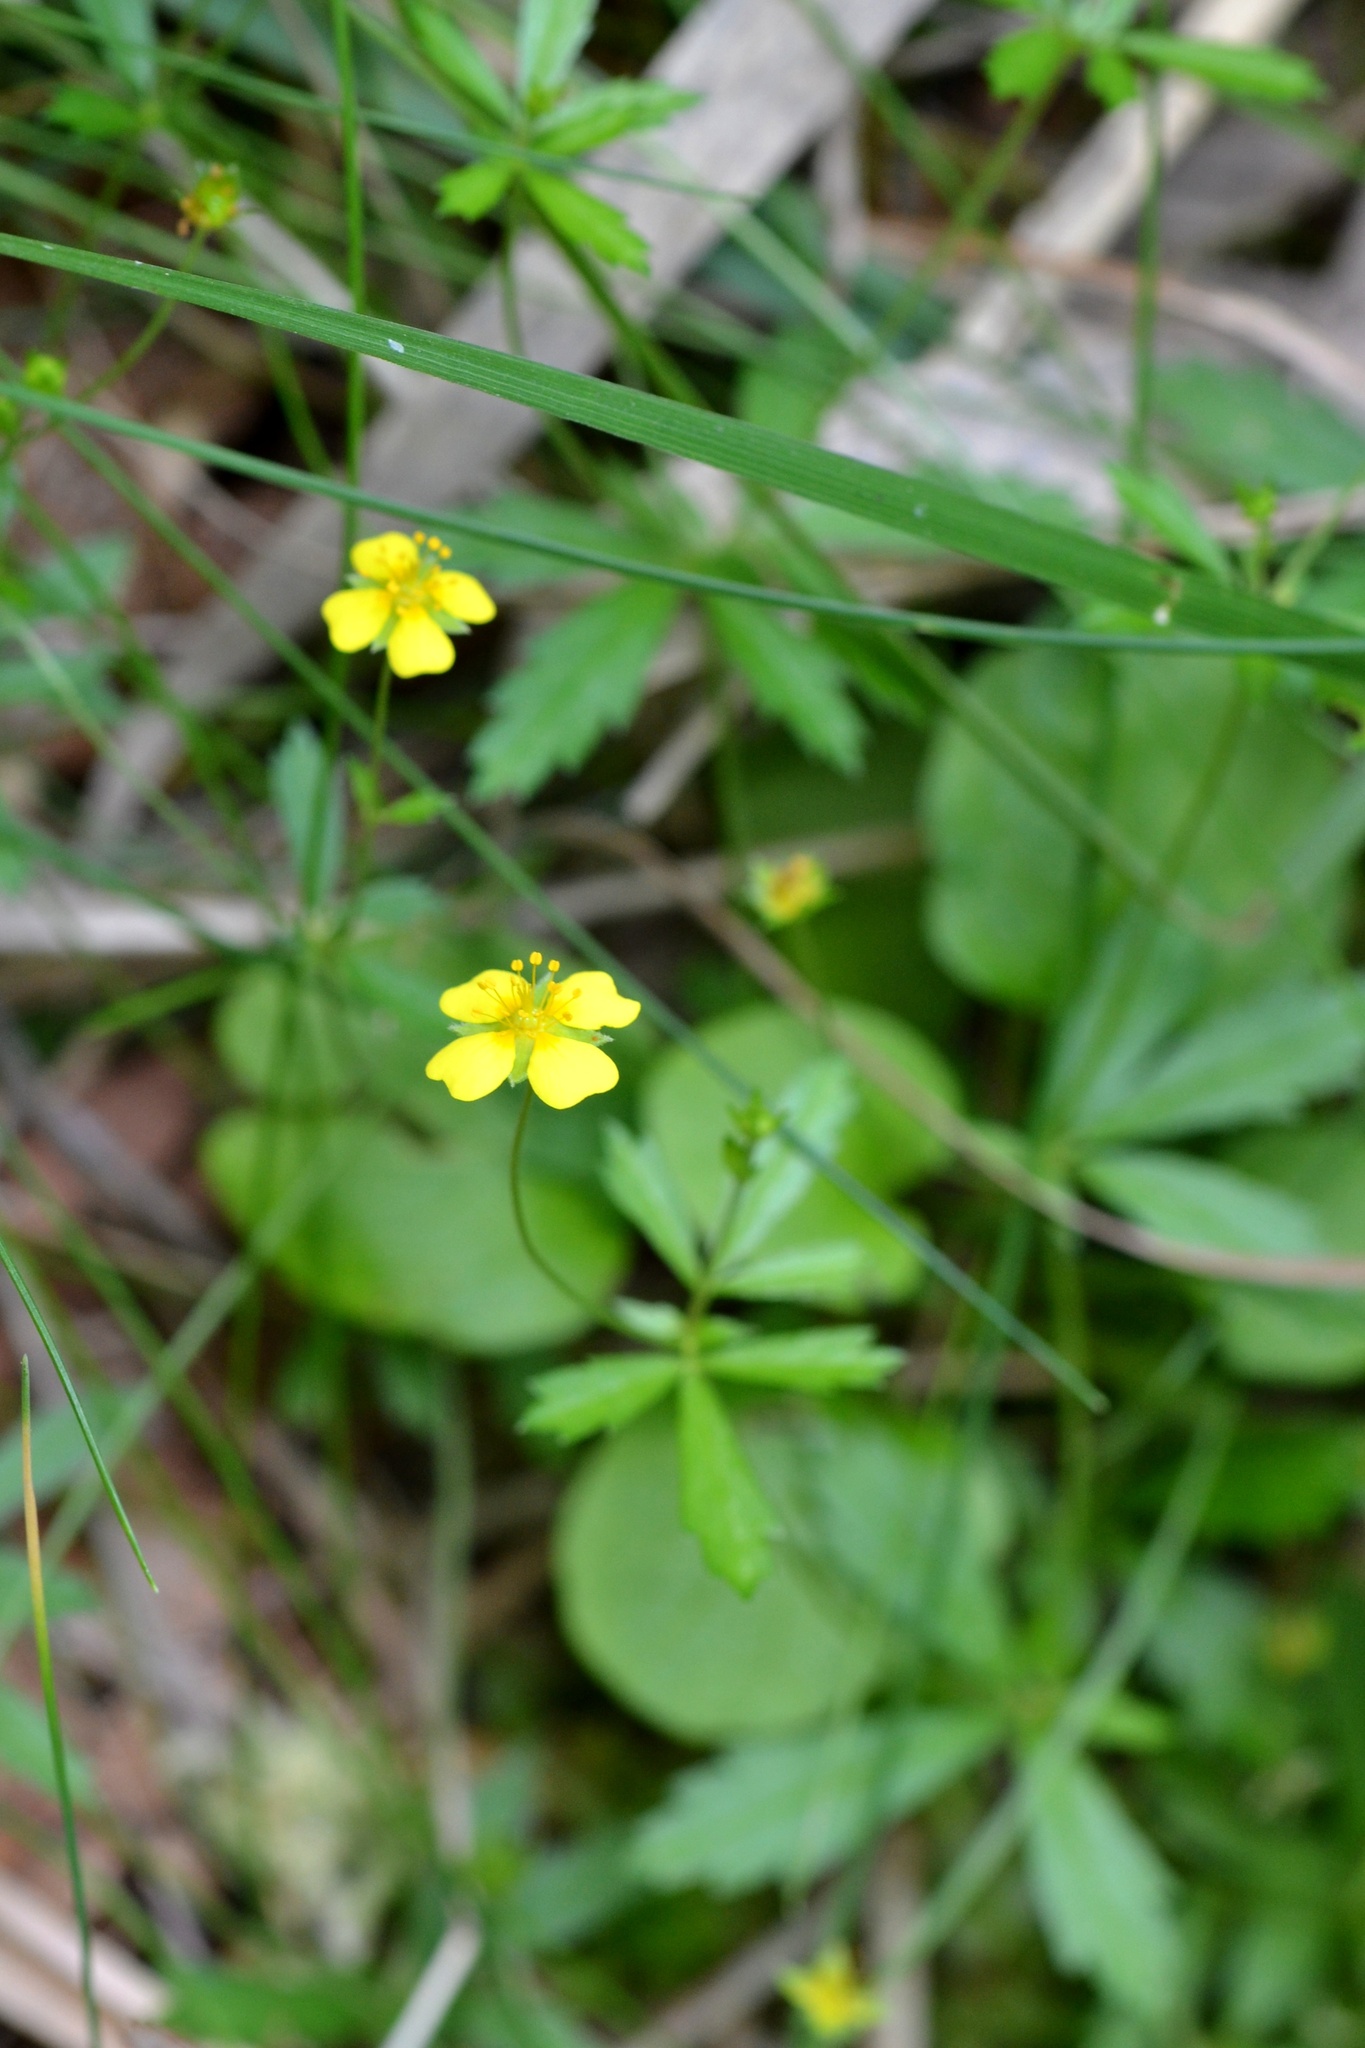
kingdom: Plantae
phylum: Tracheophyta
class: Magnoliopsida
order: Rosales
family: Rosaceae
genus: Potentilla
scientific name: Potentilla erecta
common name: Tormentil
